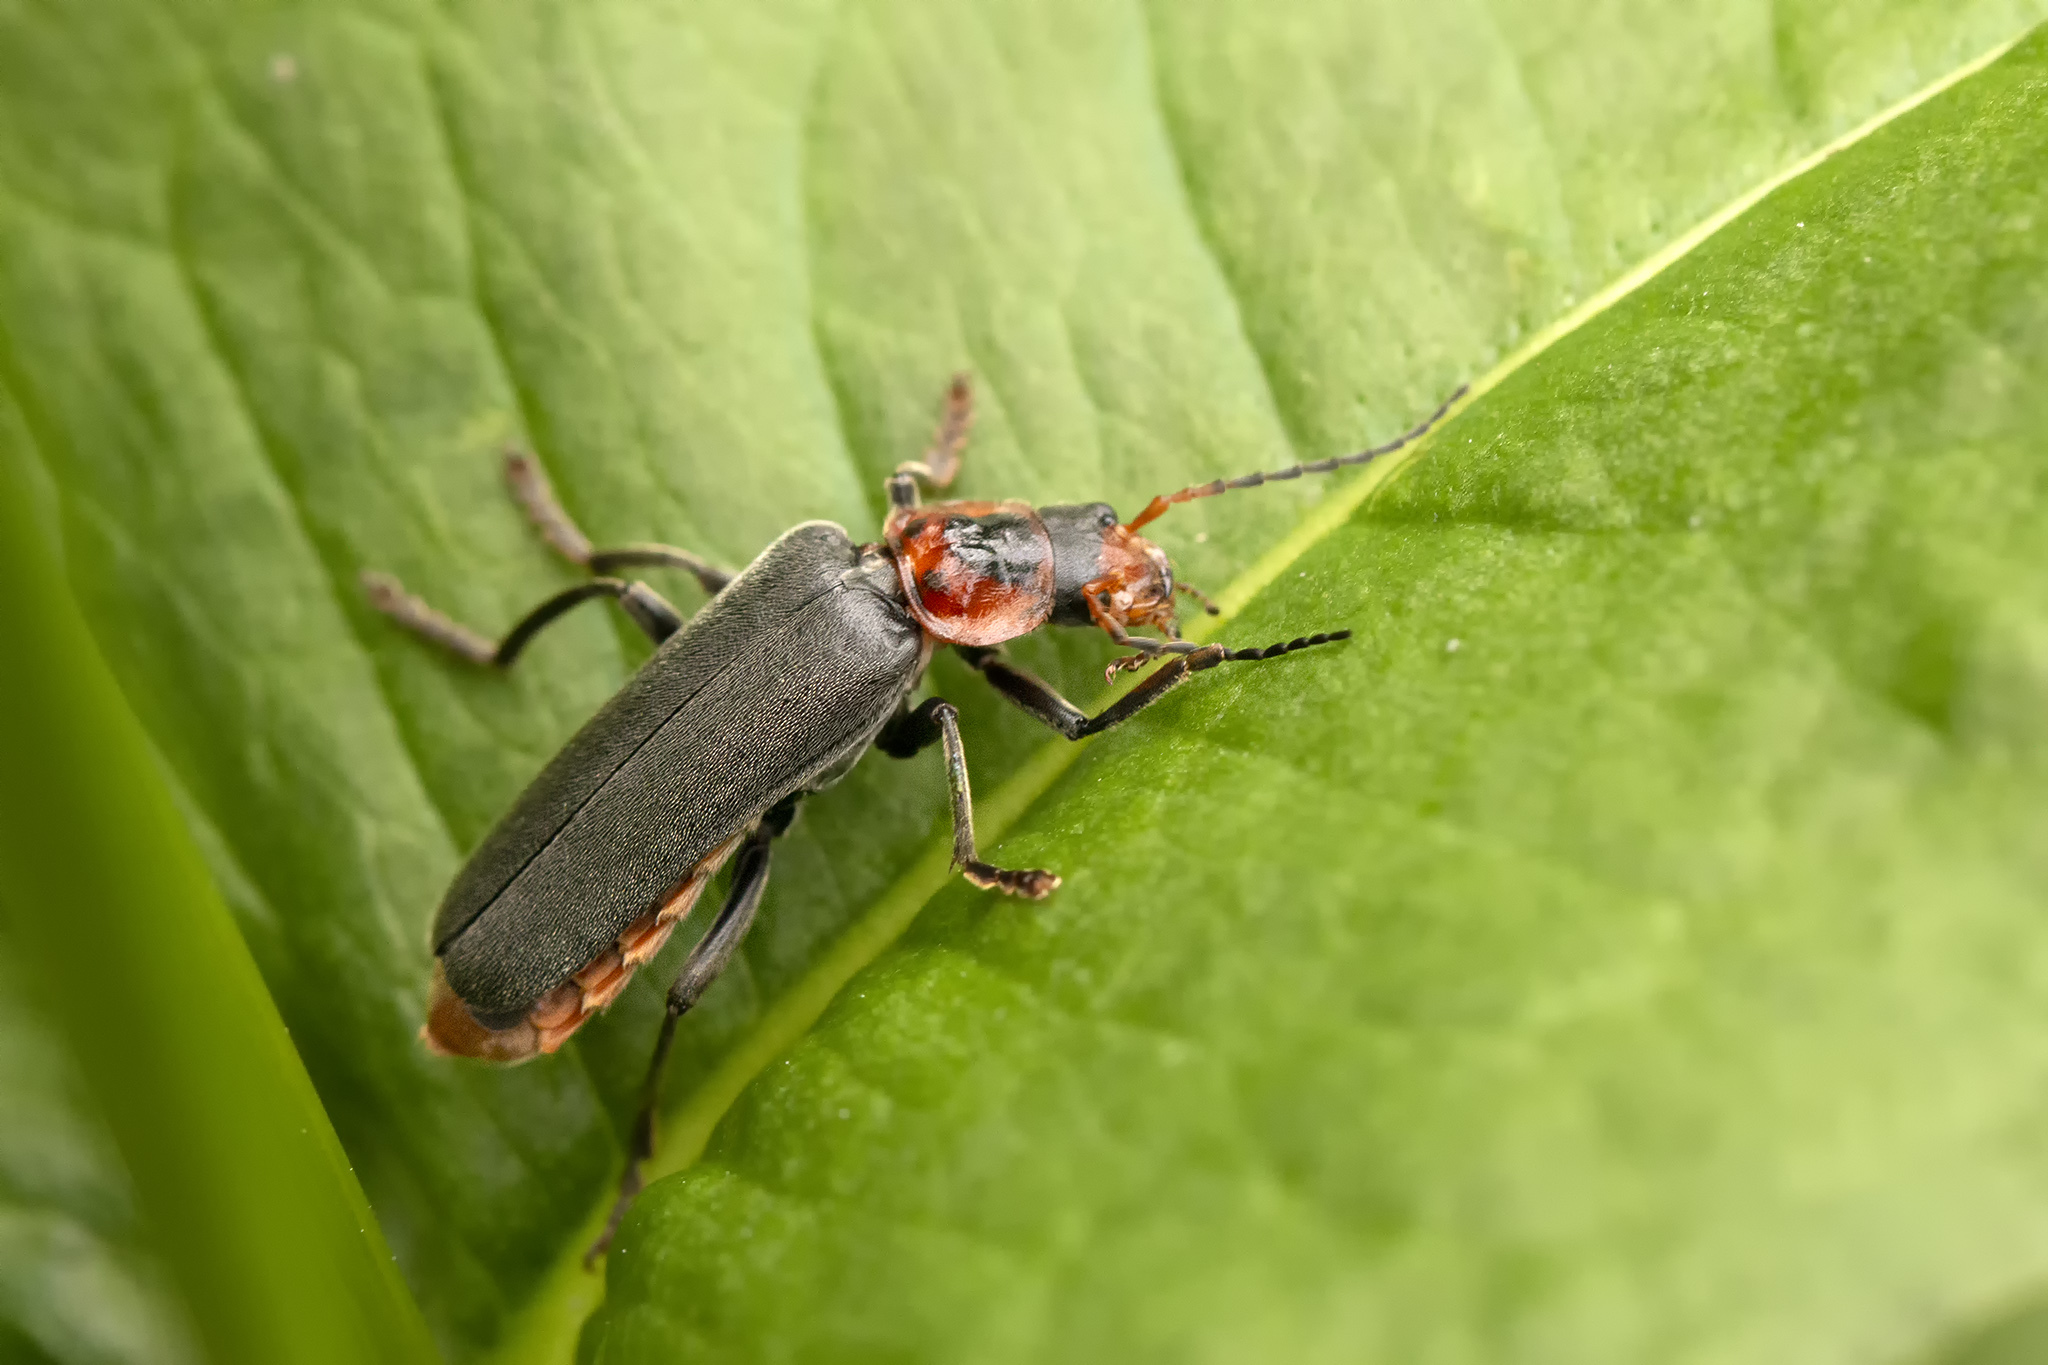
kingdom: Animalia
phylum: Arthropoda
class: Insecta
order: Coleoptera
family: Cantharidae
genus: Cantharis
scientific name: Cantharis fusca
